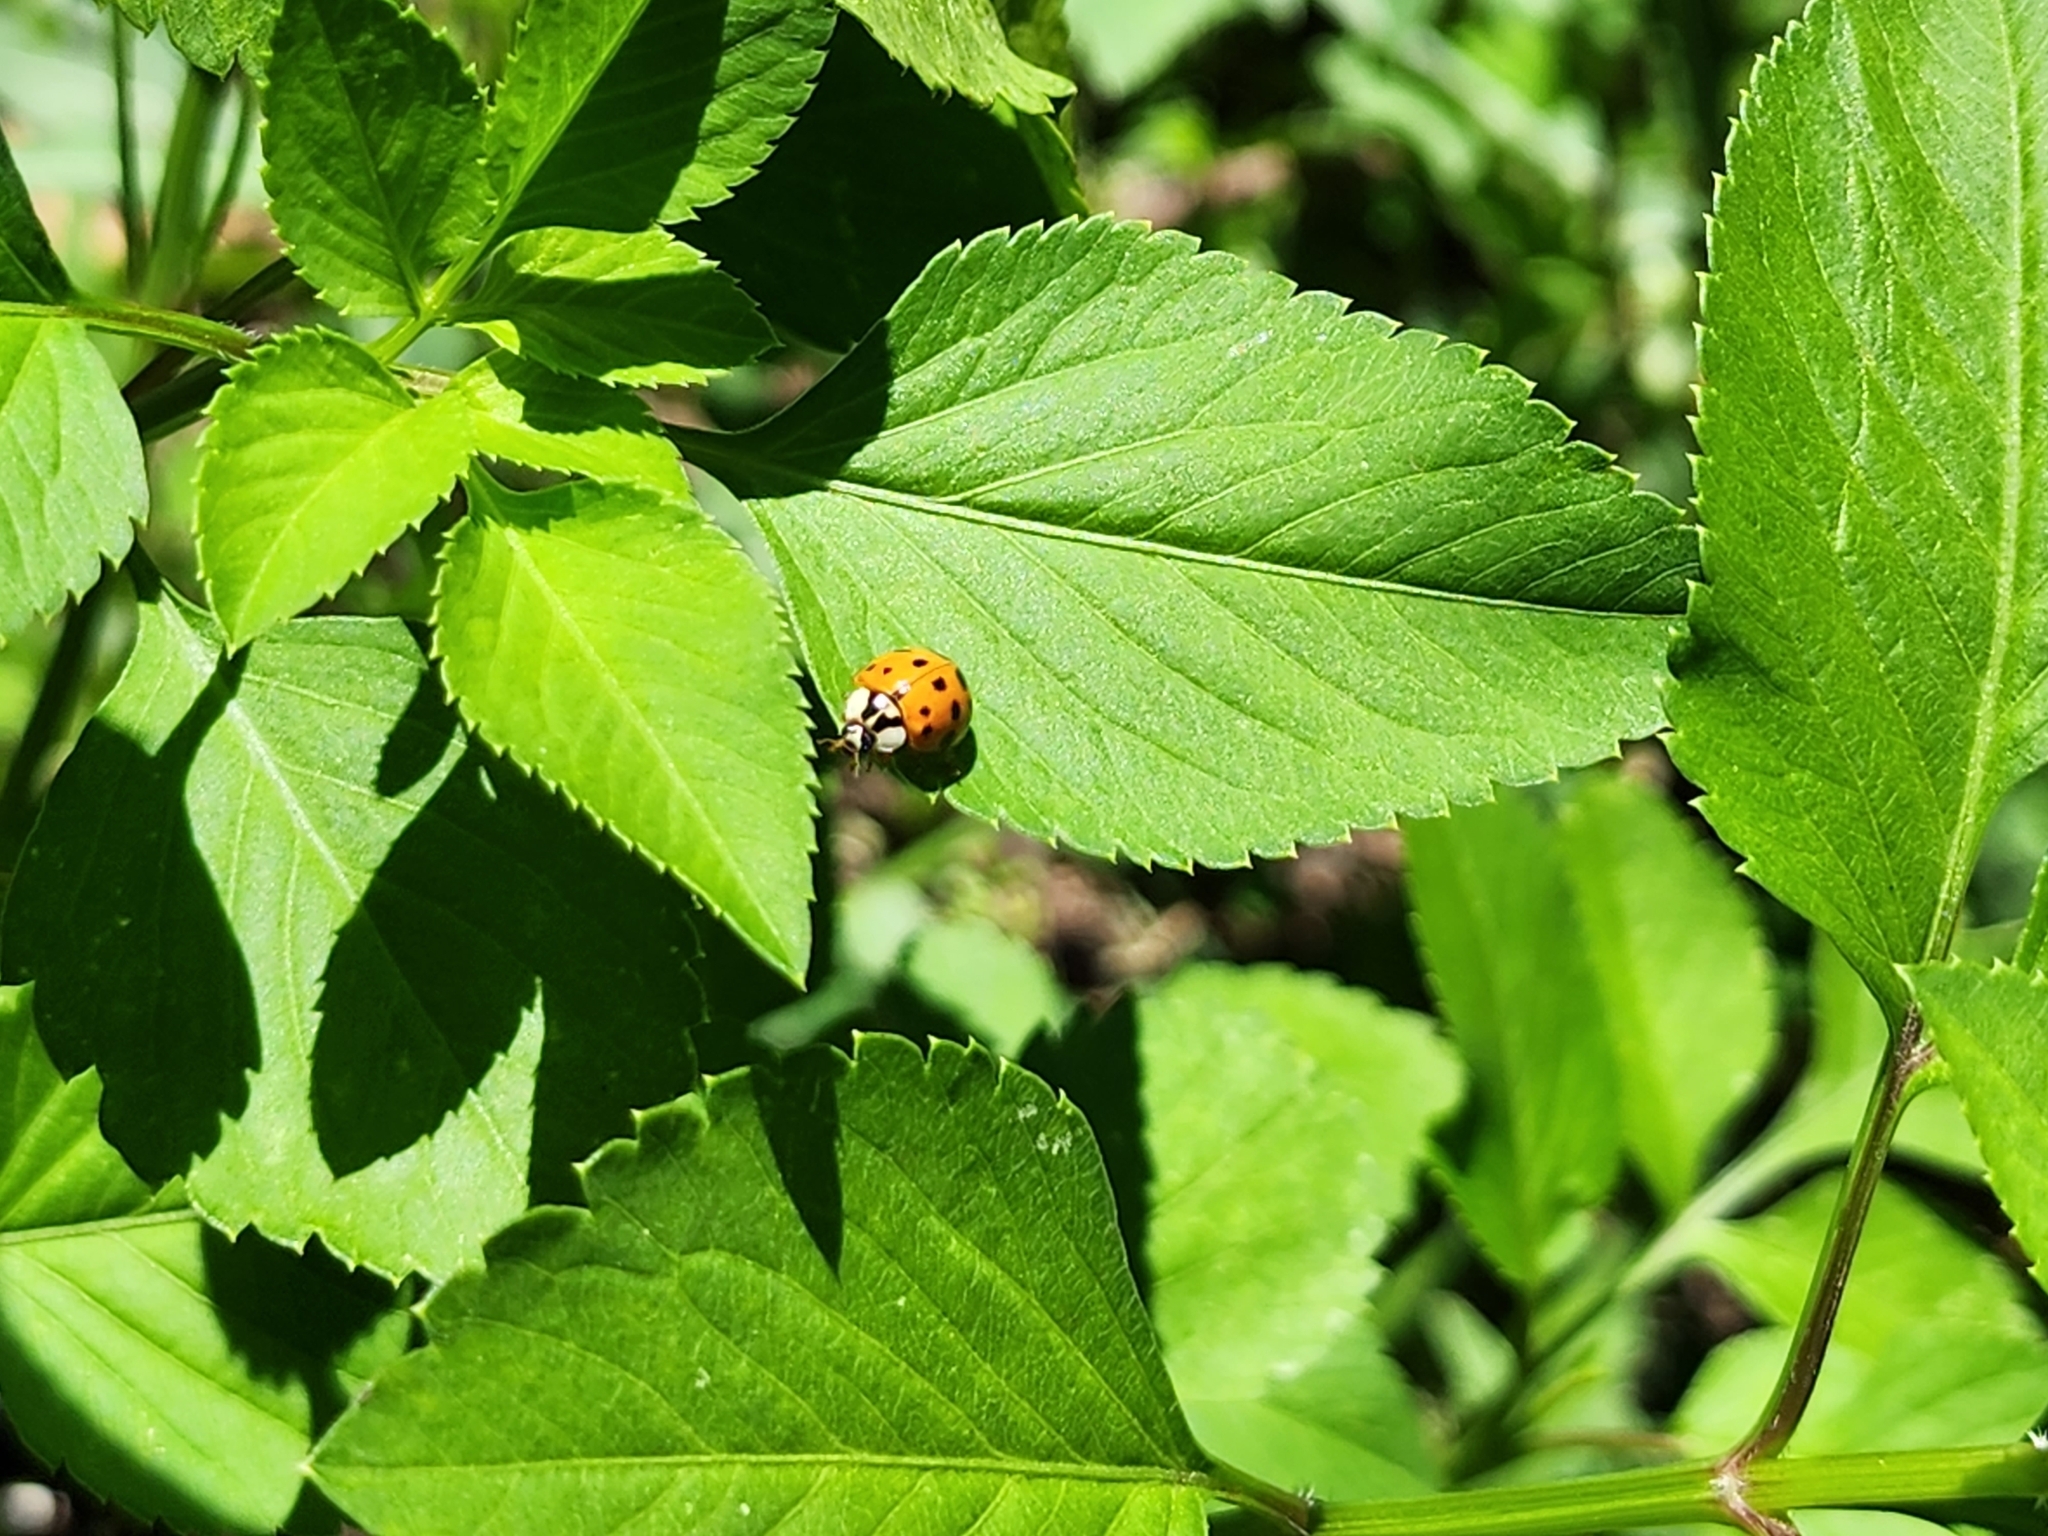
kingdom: Animalia
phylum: Arthropoda
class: Insecta
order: Coleoptera
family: Coccinellidae
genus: Harmonia
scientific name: Harmonia axyridis
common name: Harlequin ladybird
